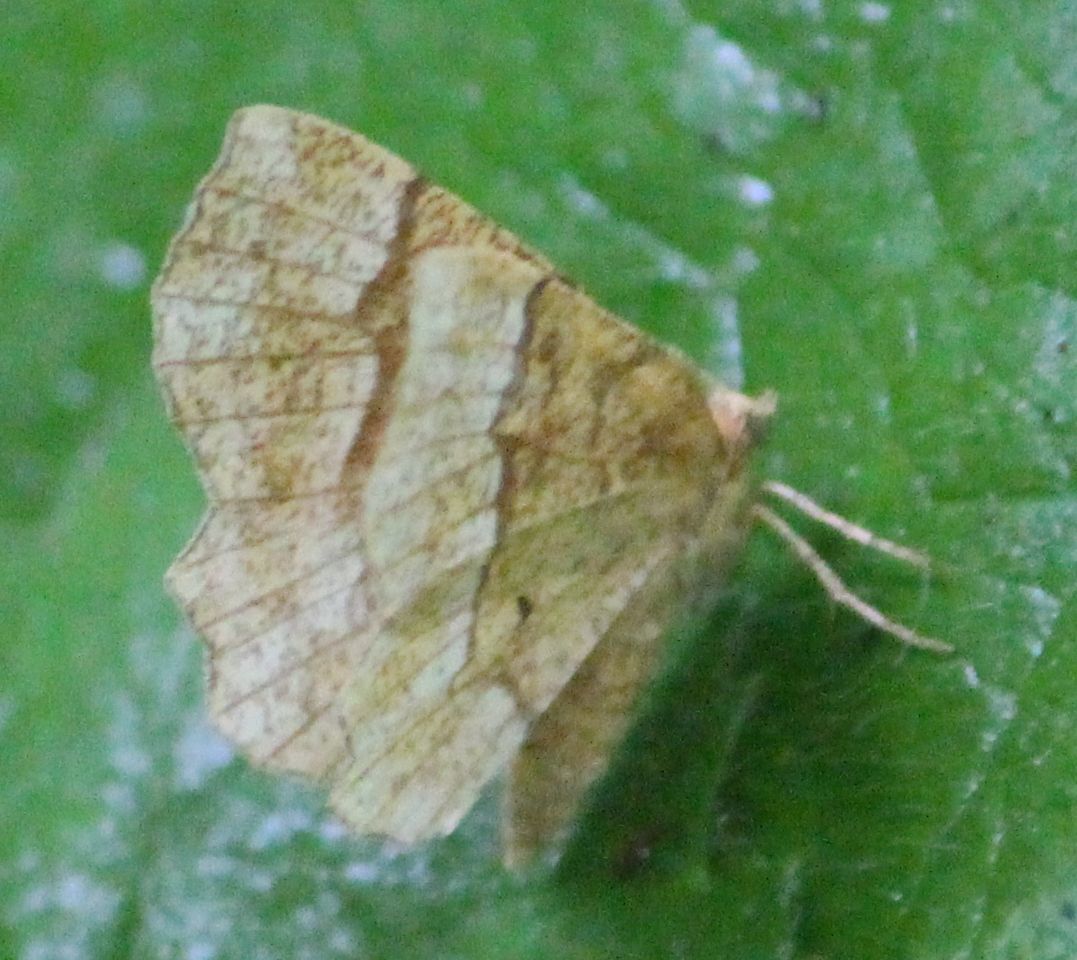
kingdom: Animalia
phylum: Arthropoda
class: Insecta
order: Lepidoptera
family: Geometridae
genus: Cepphis
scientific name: Cepphis advenaria
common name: Little thorn
